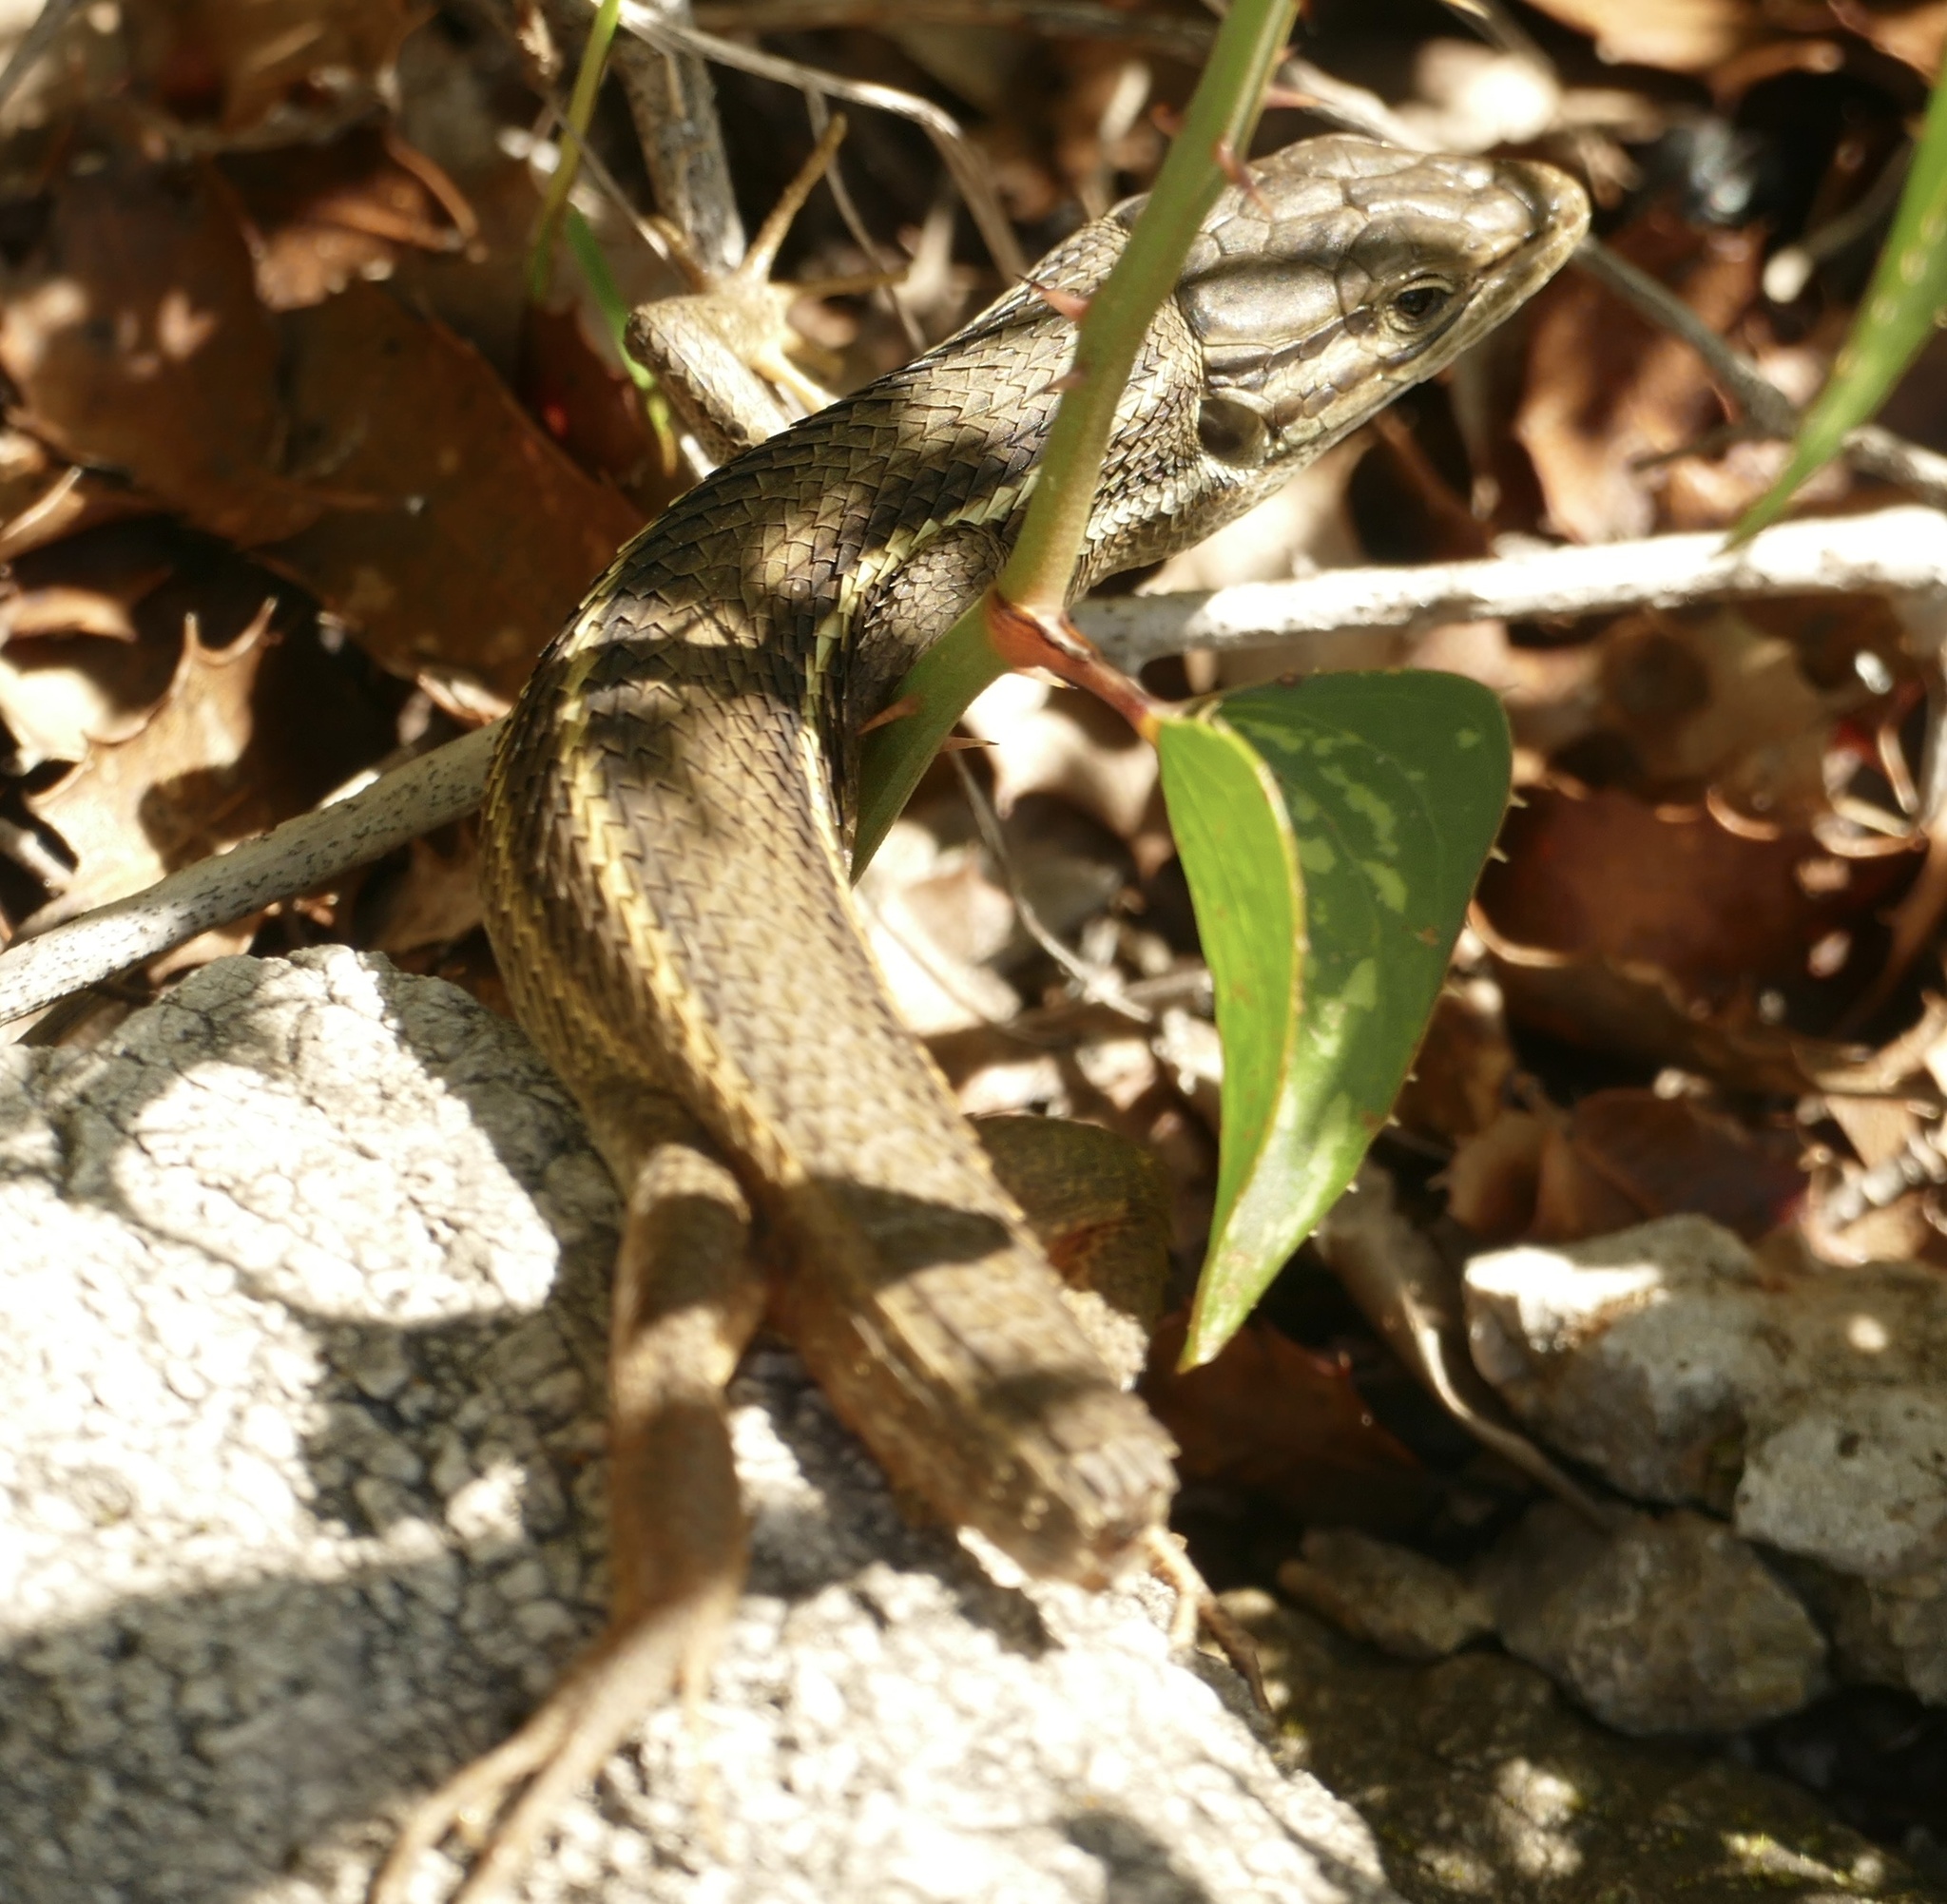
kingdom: Animalia
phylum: Chordata
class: Squamata
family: Lacertidae
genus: Psammodromus
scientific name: Psammodromus algirus
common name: Algerian psammodromus
